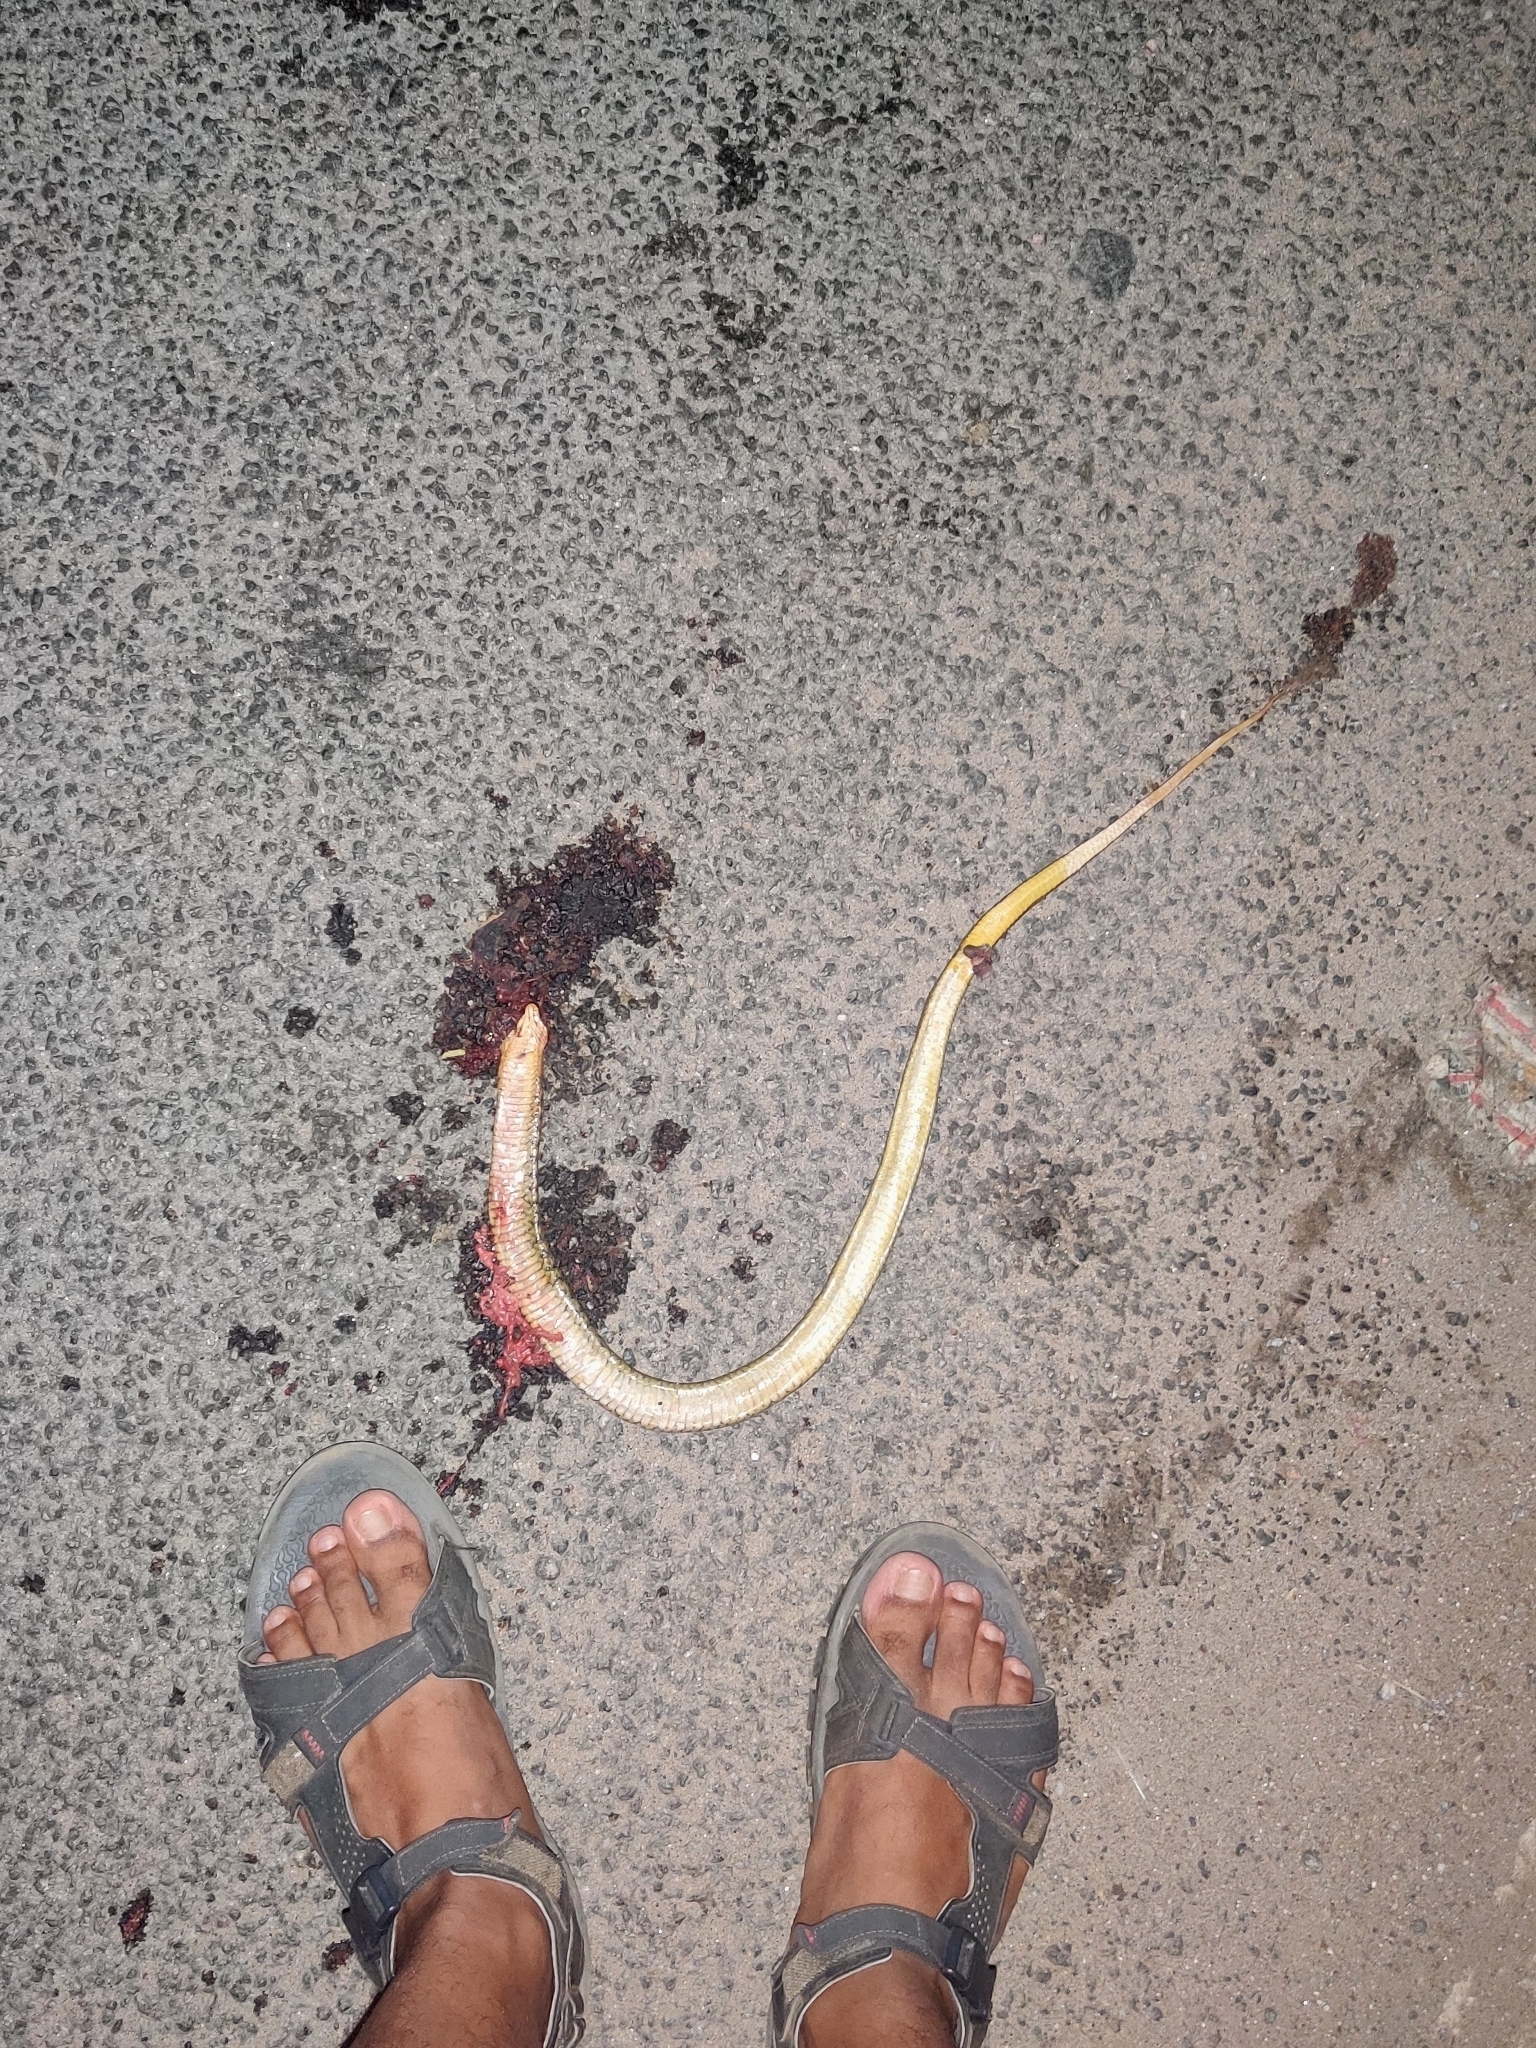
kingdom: Animalia
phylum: Chordata
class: Squamata
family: Colubridae
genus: Fowlea
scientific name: Fowlea piscator
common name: Asiatic water snake
